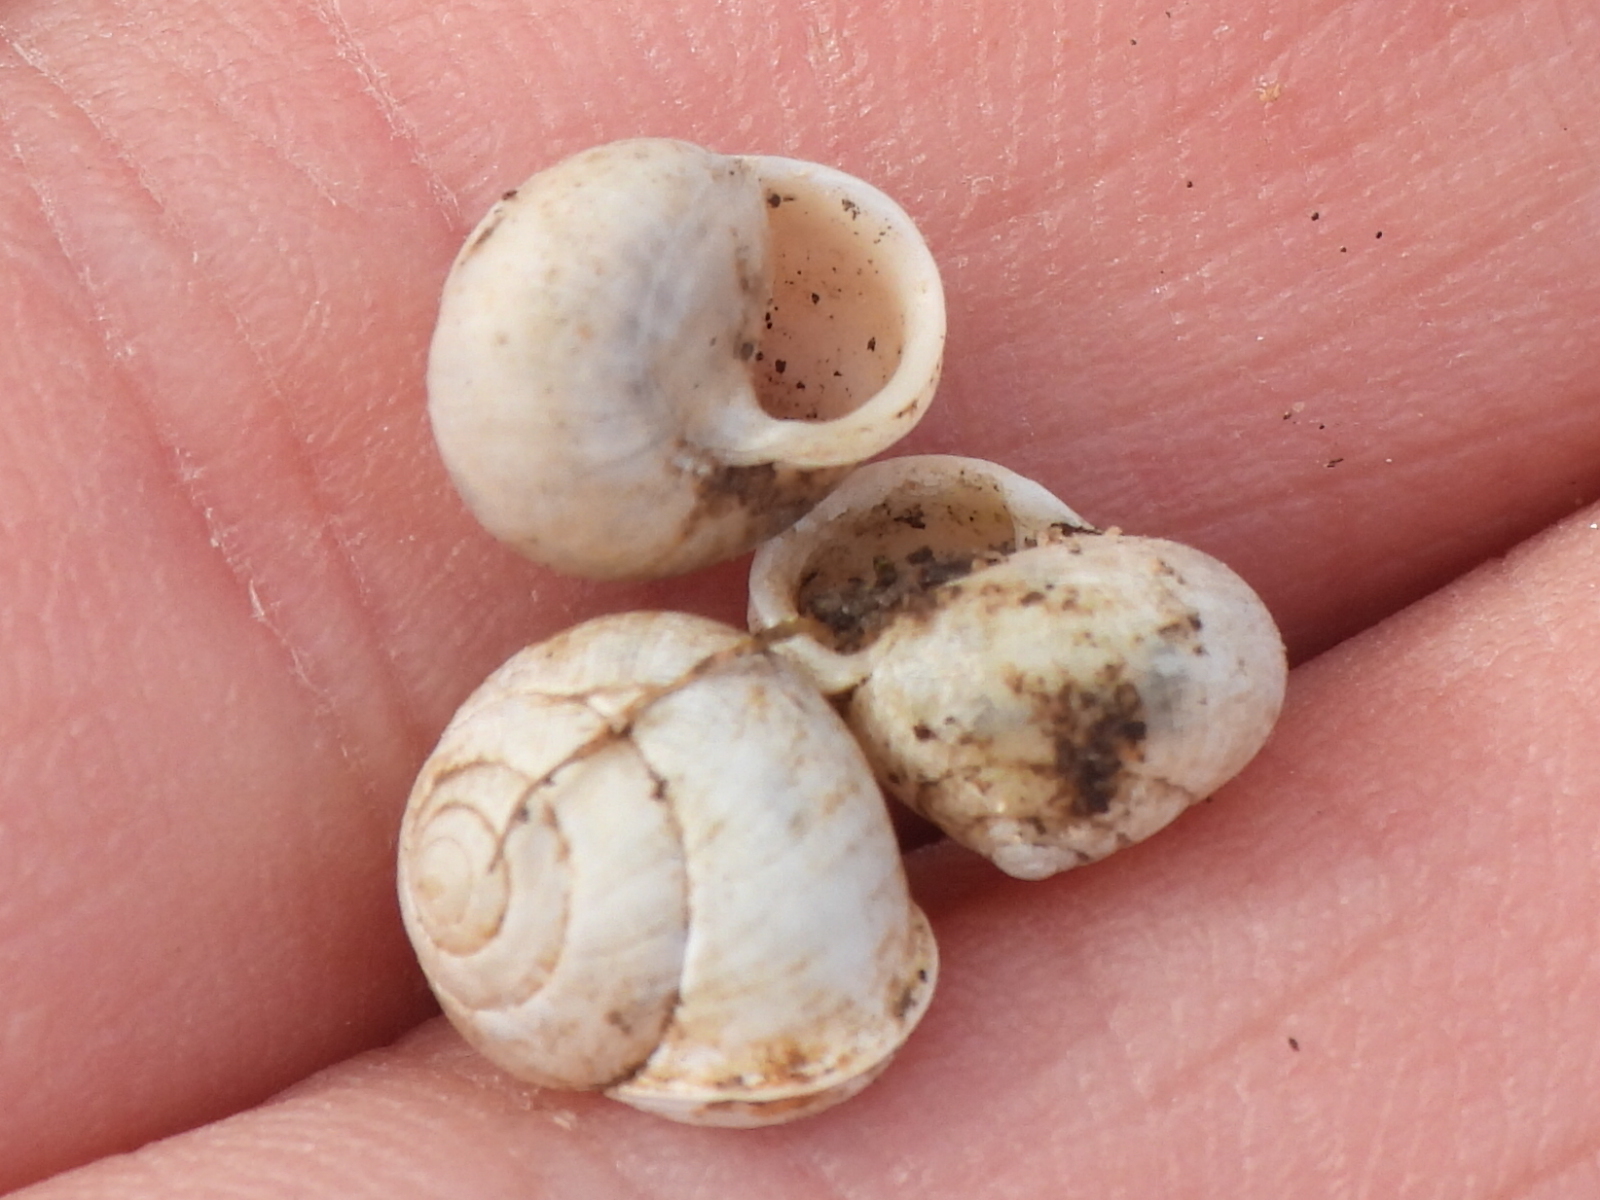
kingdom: Animalia
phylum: Mollusca
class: Gastropoda
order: Cycloneritida
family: Helicinidae
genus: Helicina
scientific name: Helicina orbiculata
